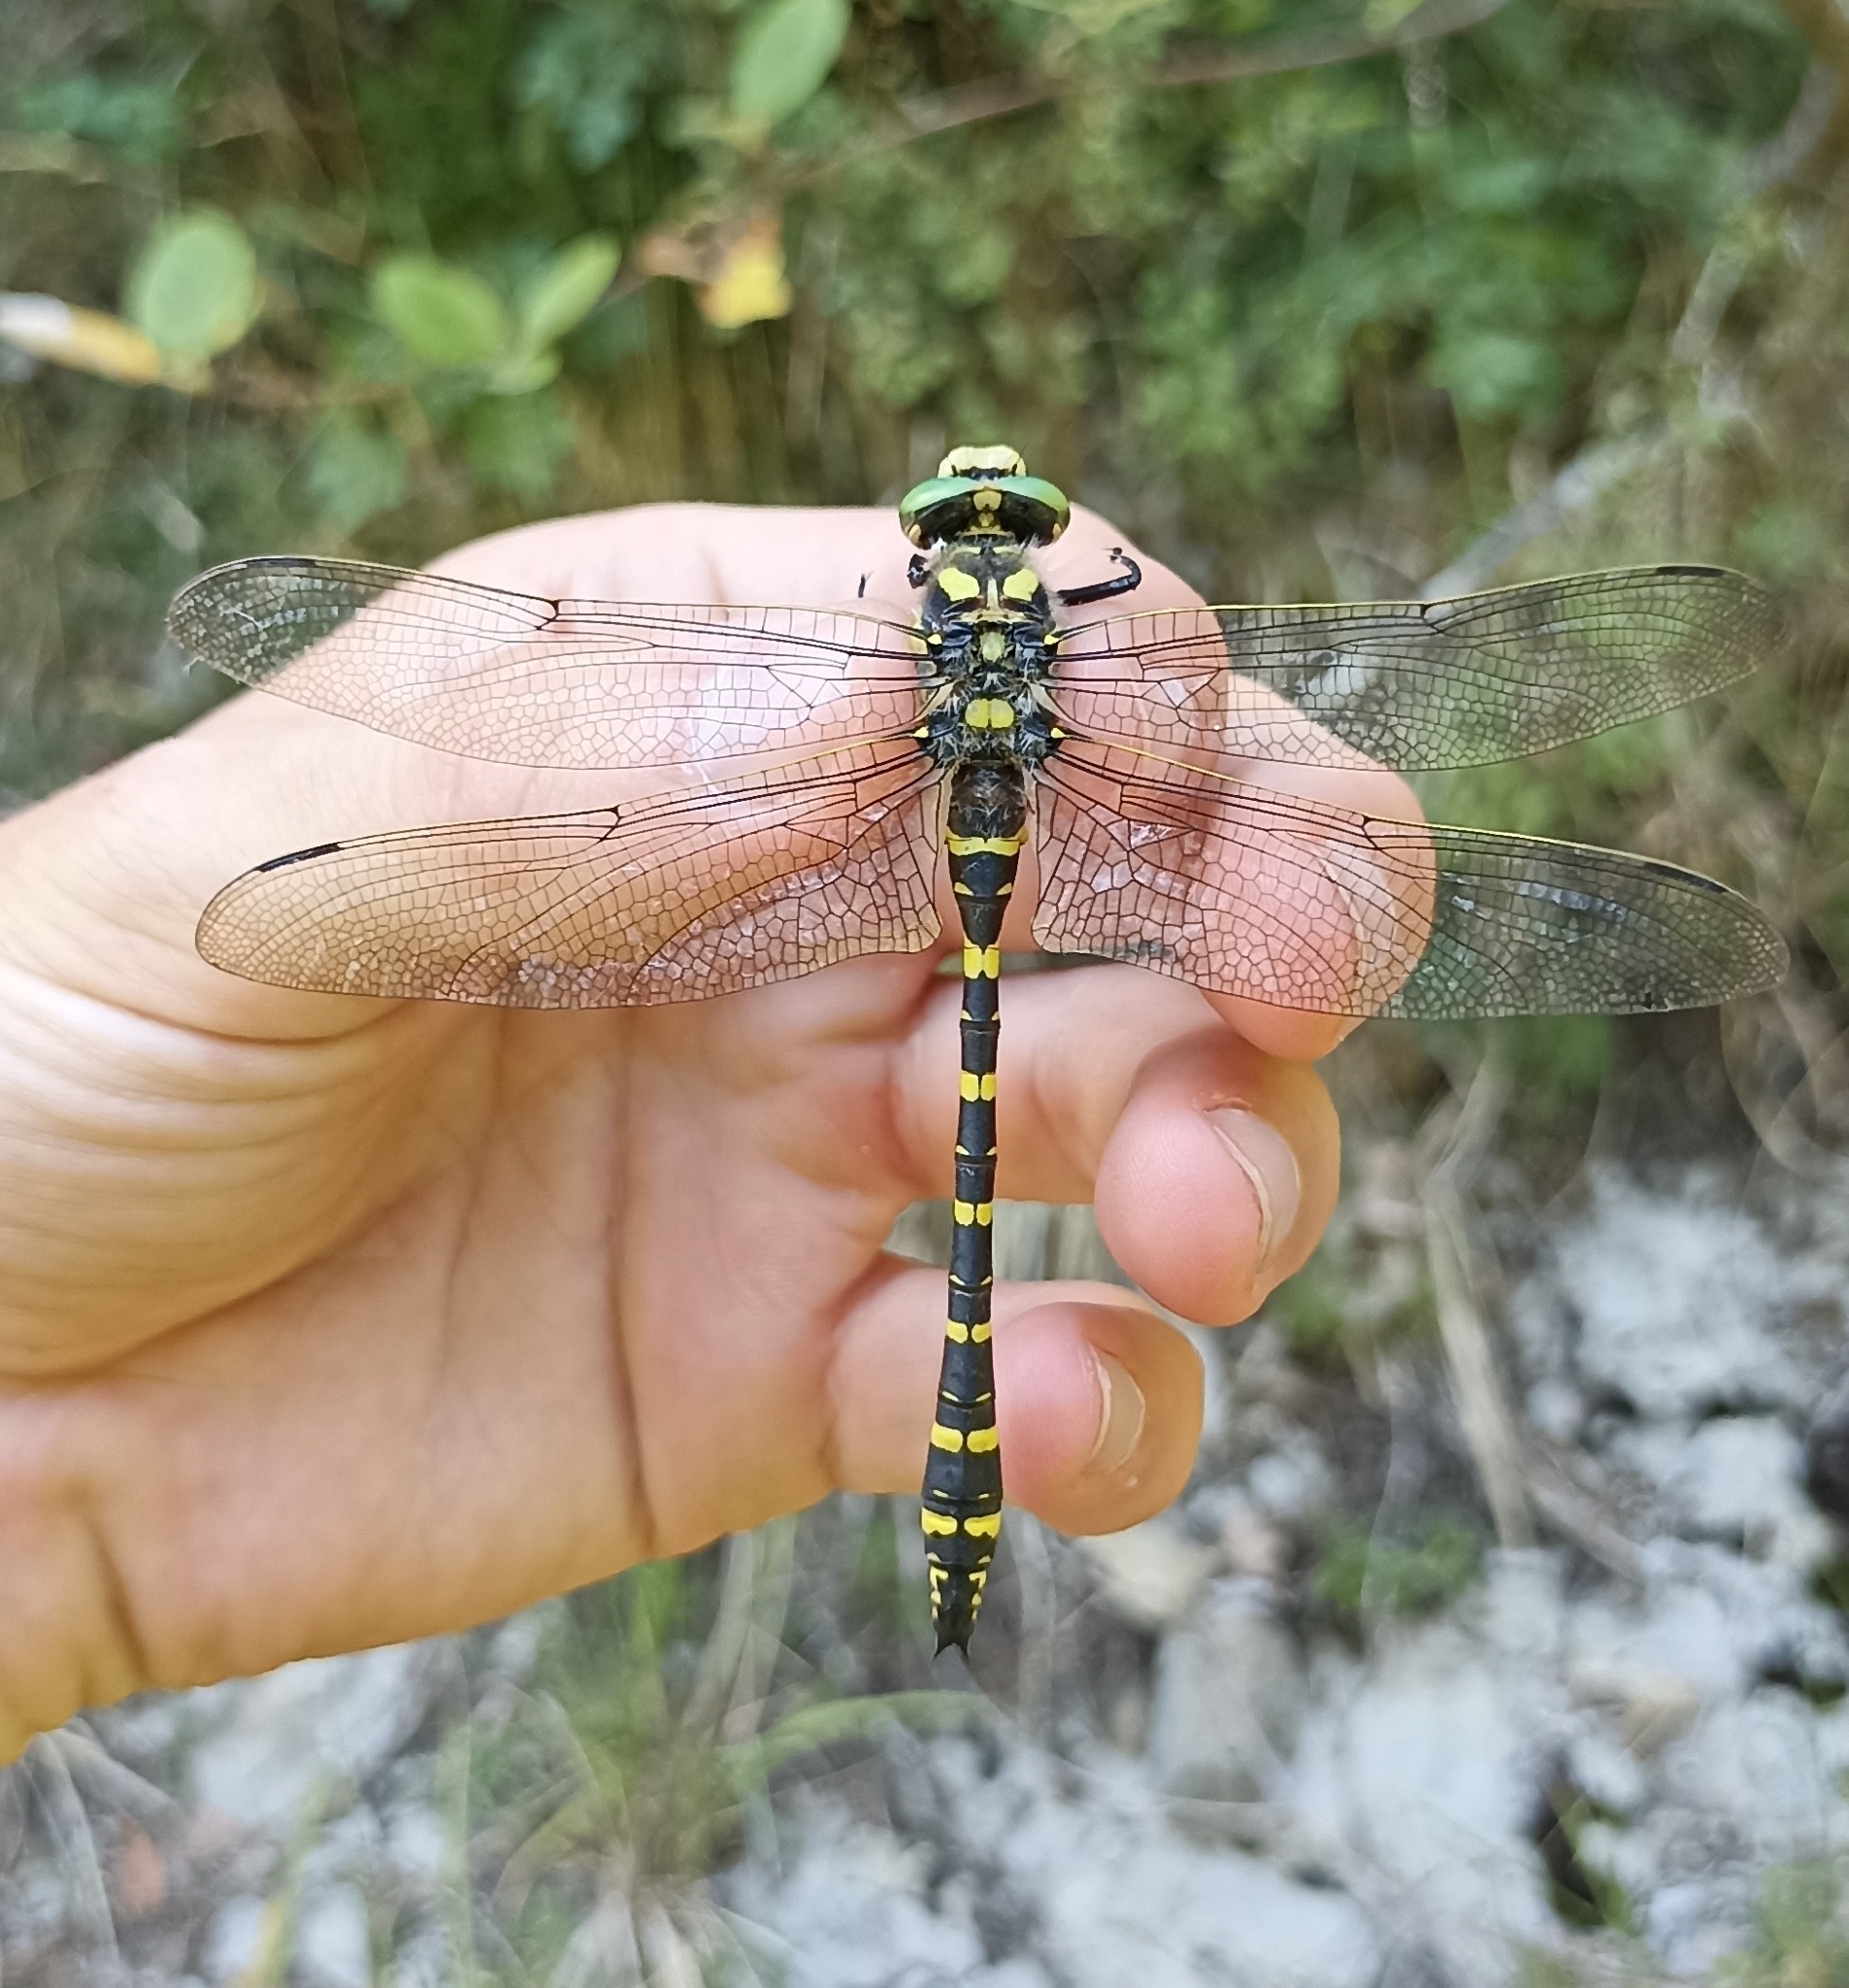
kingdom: Animalia
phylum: Arthropoda
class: Insecta
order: Odonata
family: Cordulegastridae
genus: Cordulegaster
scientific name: Cordulegaster boltonii
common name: Golden-ringed dragonfly
